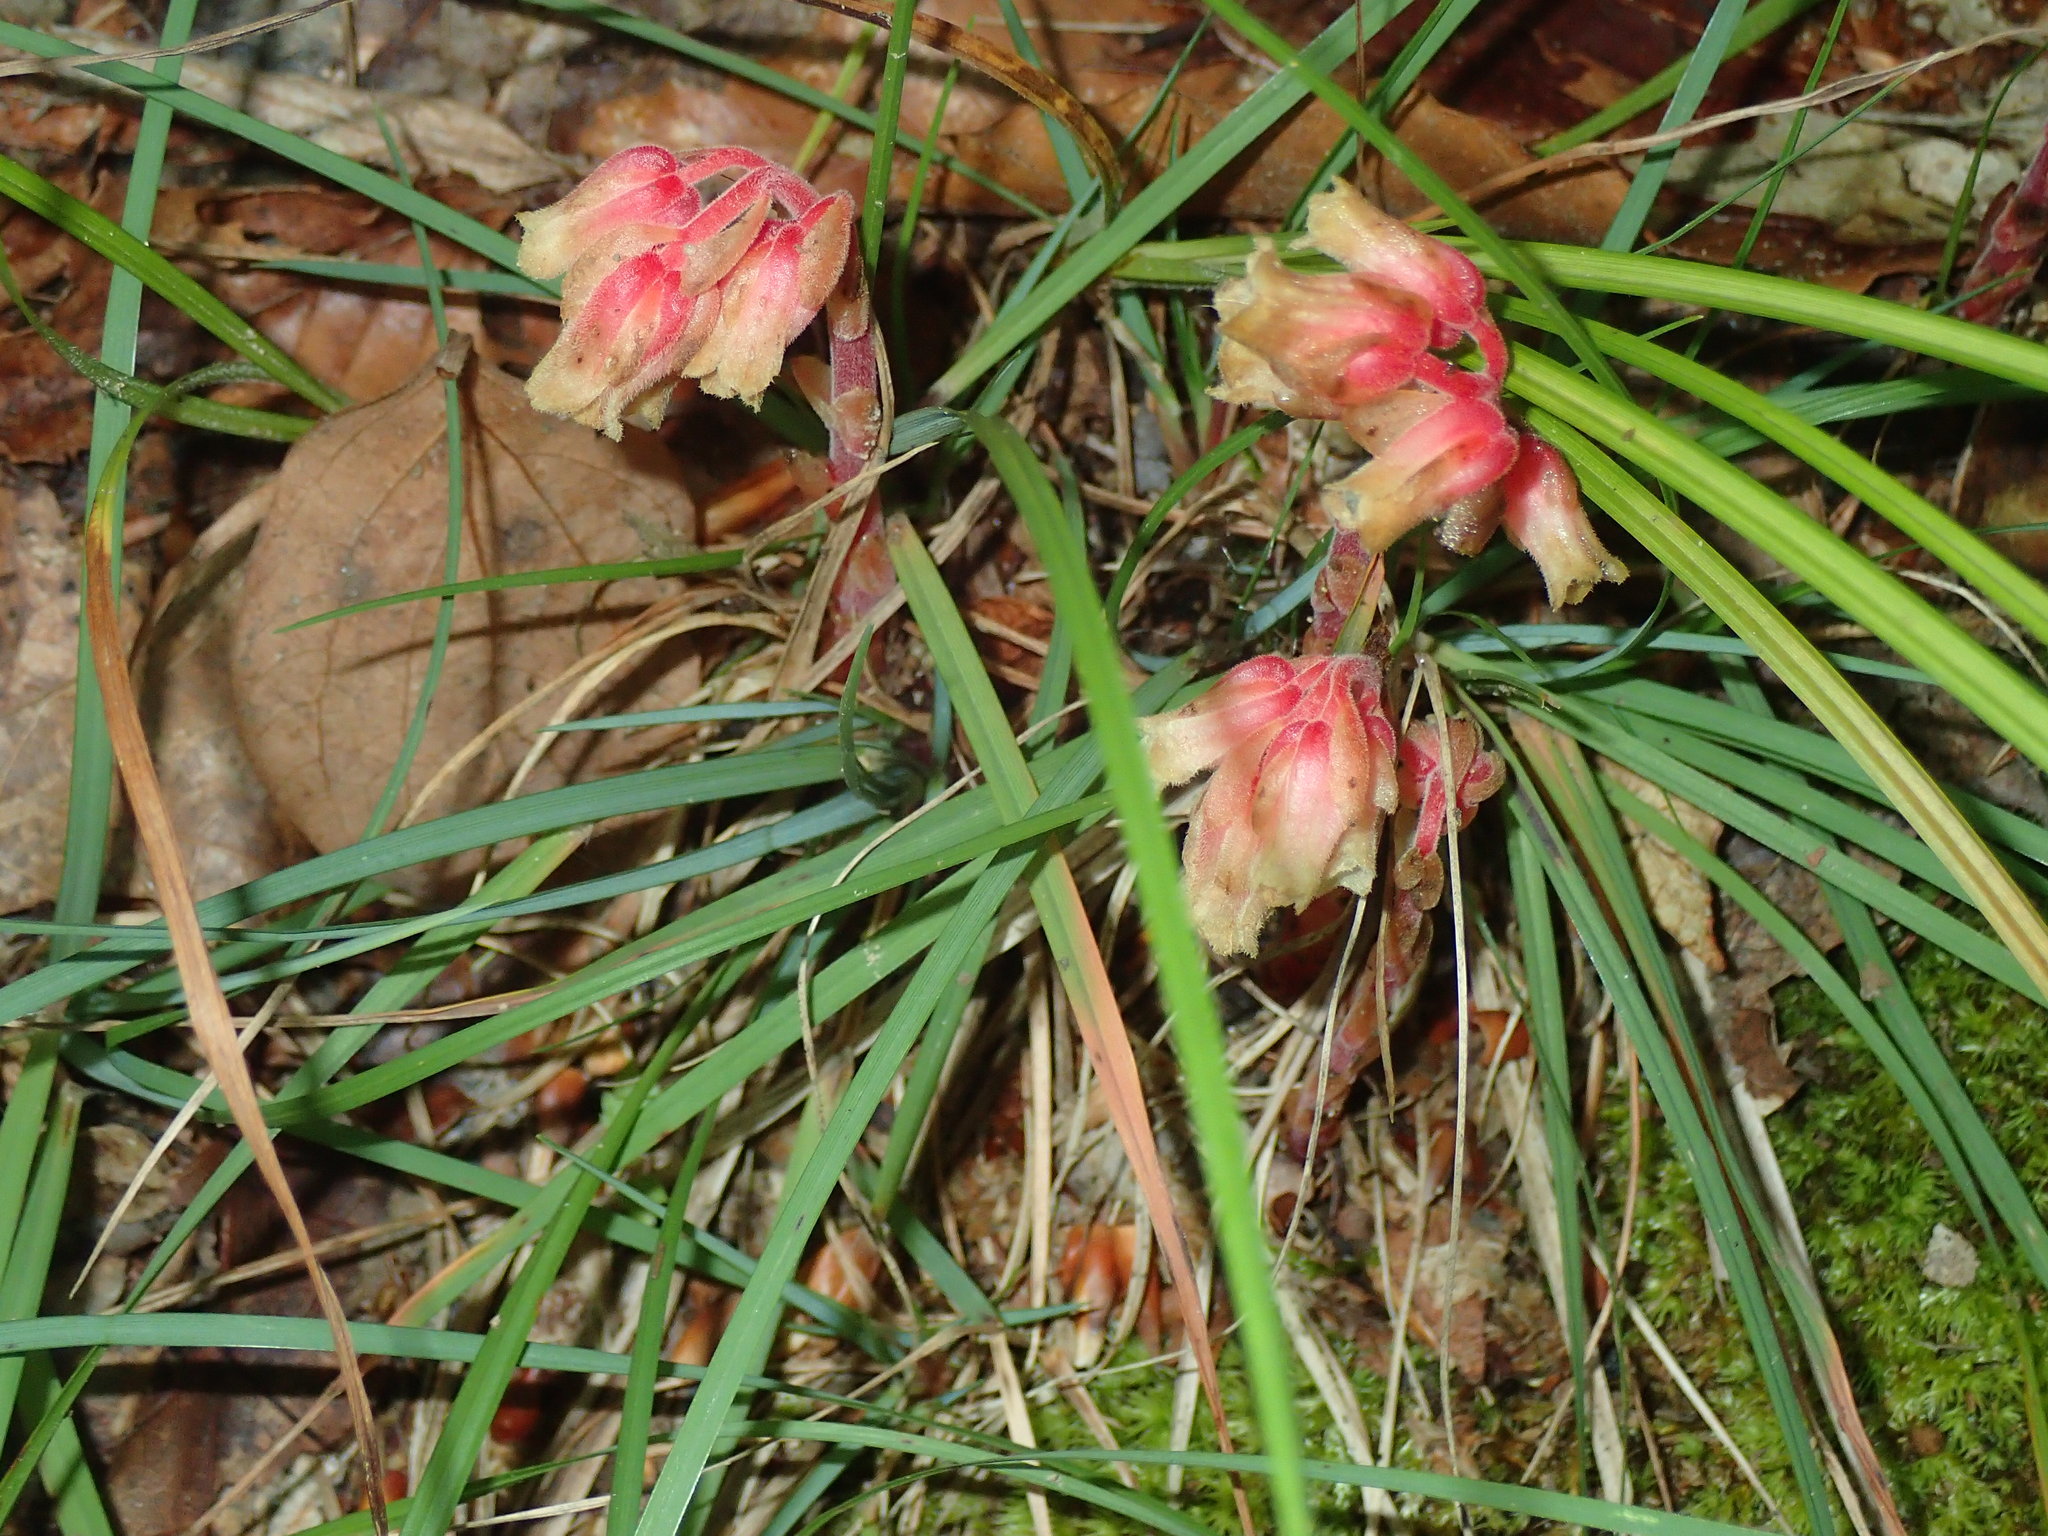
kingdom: Plantae
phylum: Tracheophyta
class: Magnoliopsida
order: Ericales
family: Ericaceae
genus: Hypopitys
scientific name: Hypopitys monotropa
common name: Yellow bird's-nest
